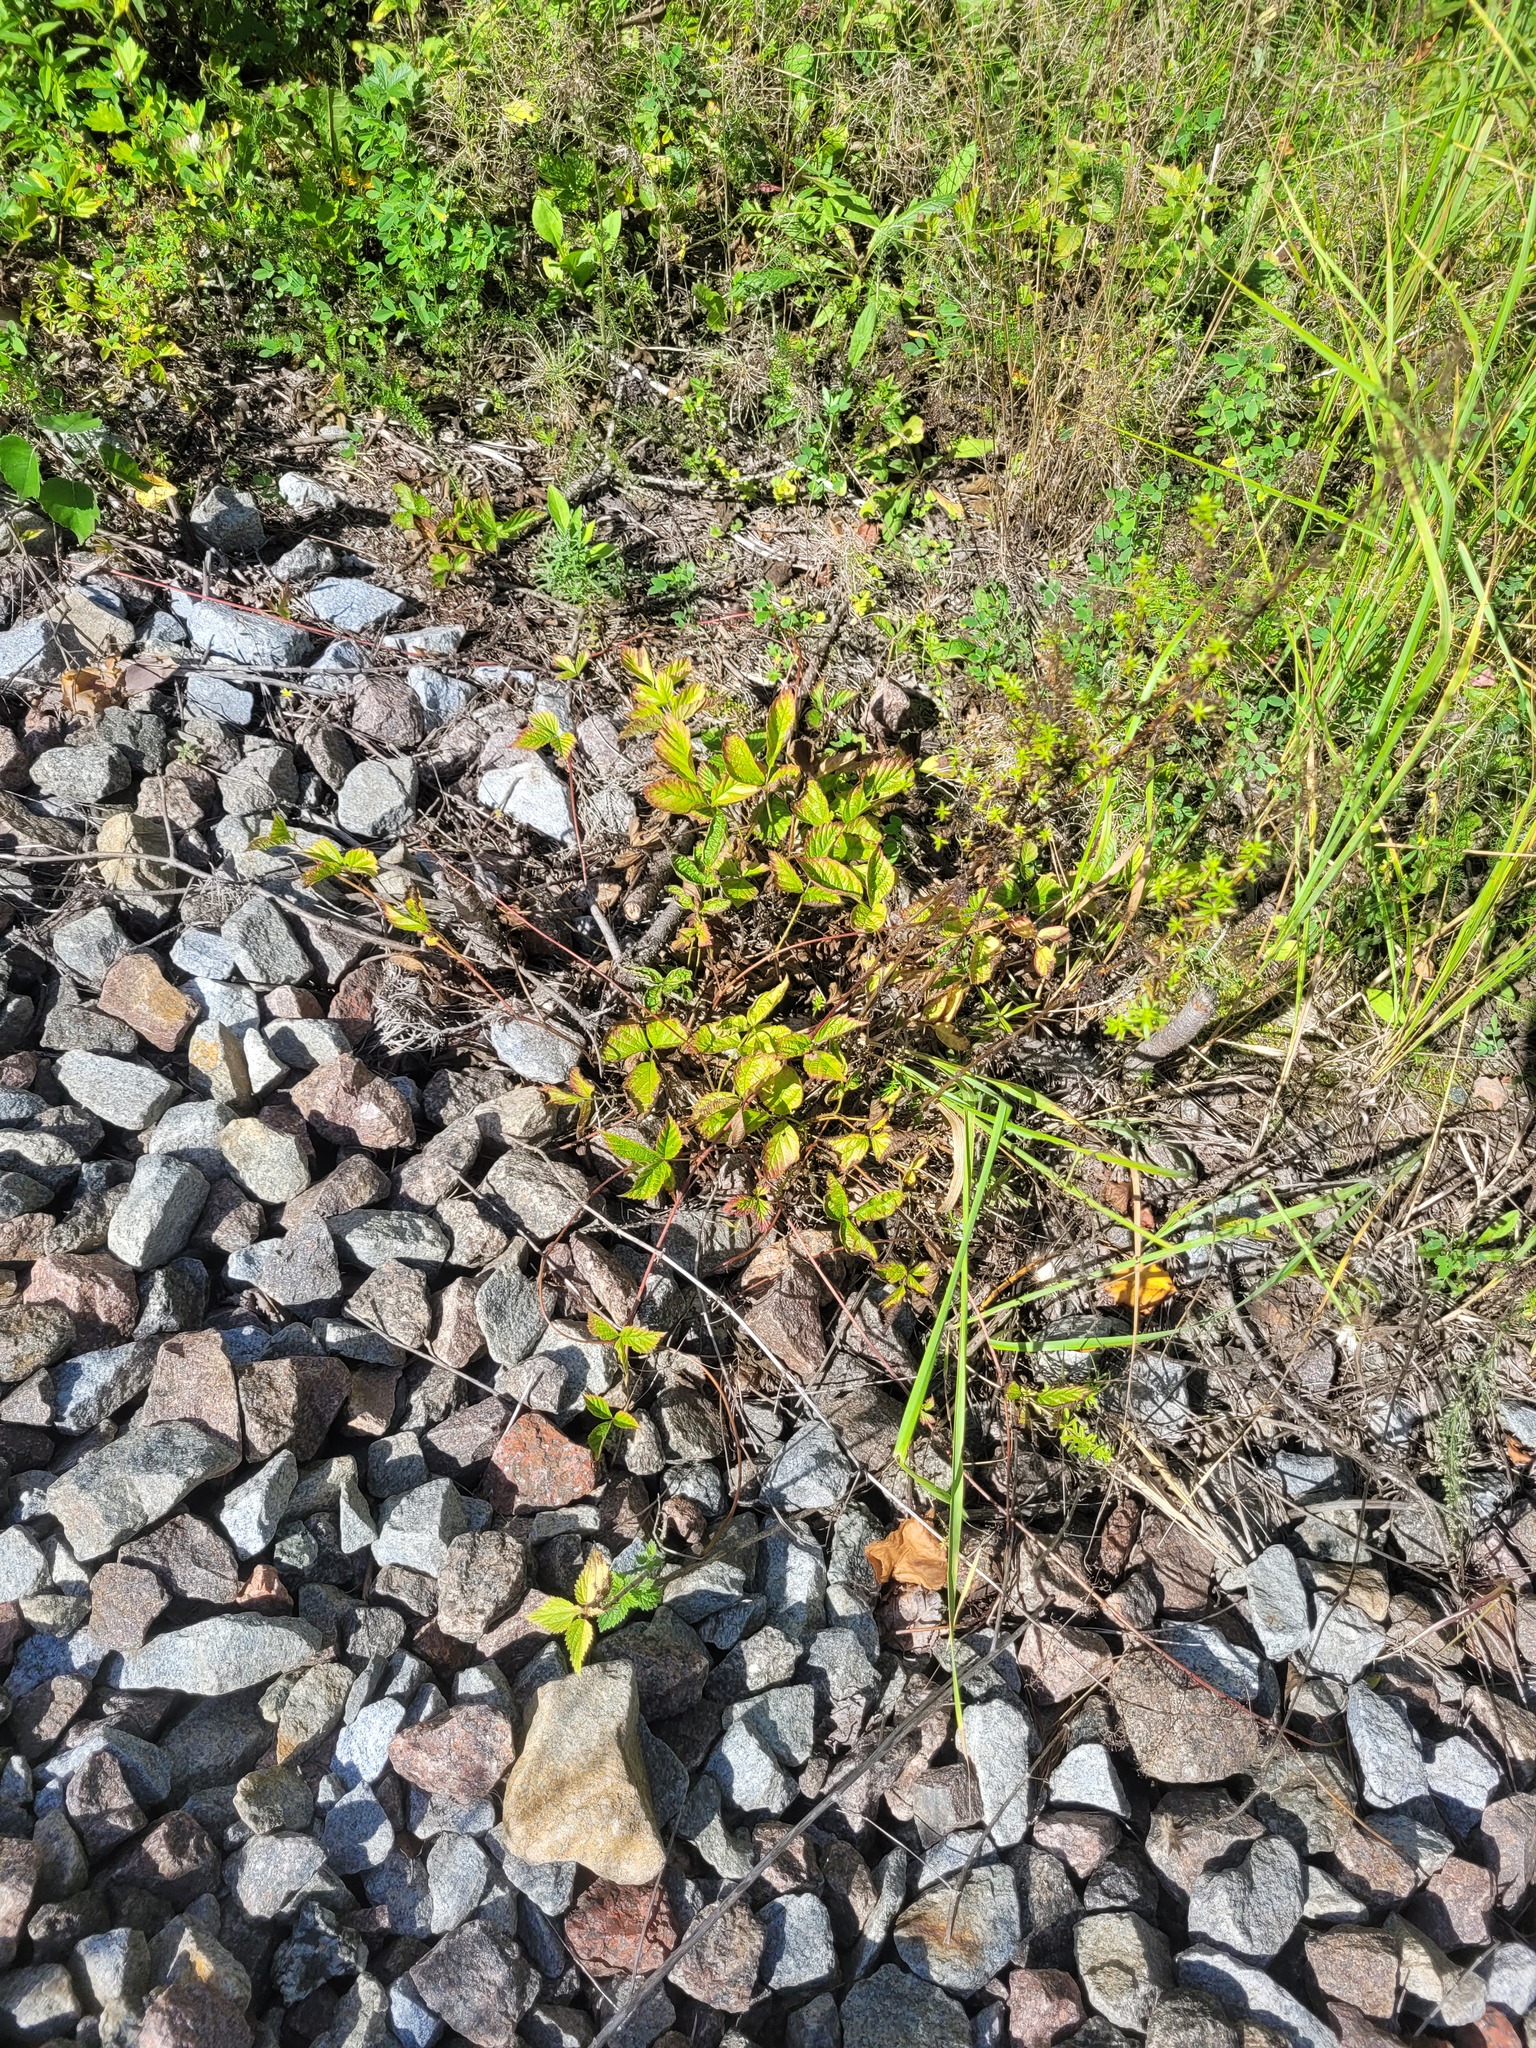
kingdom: Plantae
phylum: Tracheophyta
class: Magnoliopsida
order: Rosales
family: Rosaceae
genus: Rubus
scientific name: Rubus saxatilis
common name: Stone bramble
